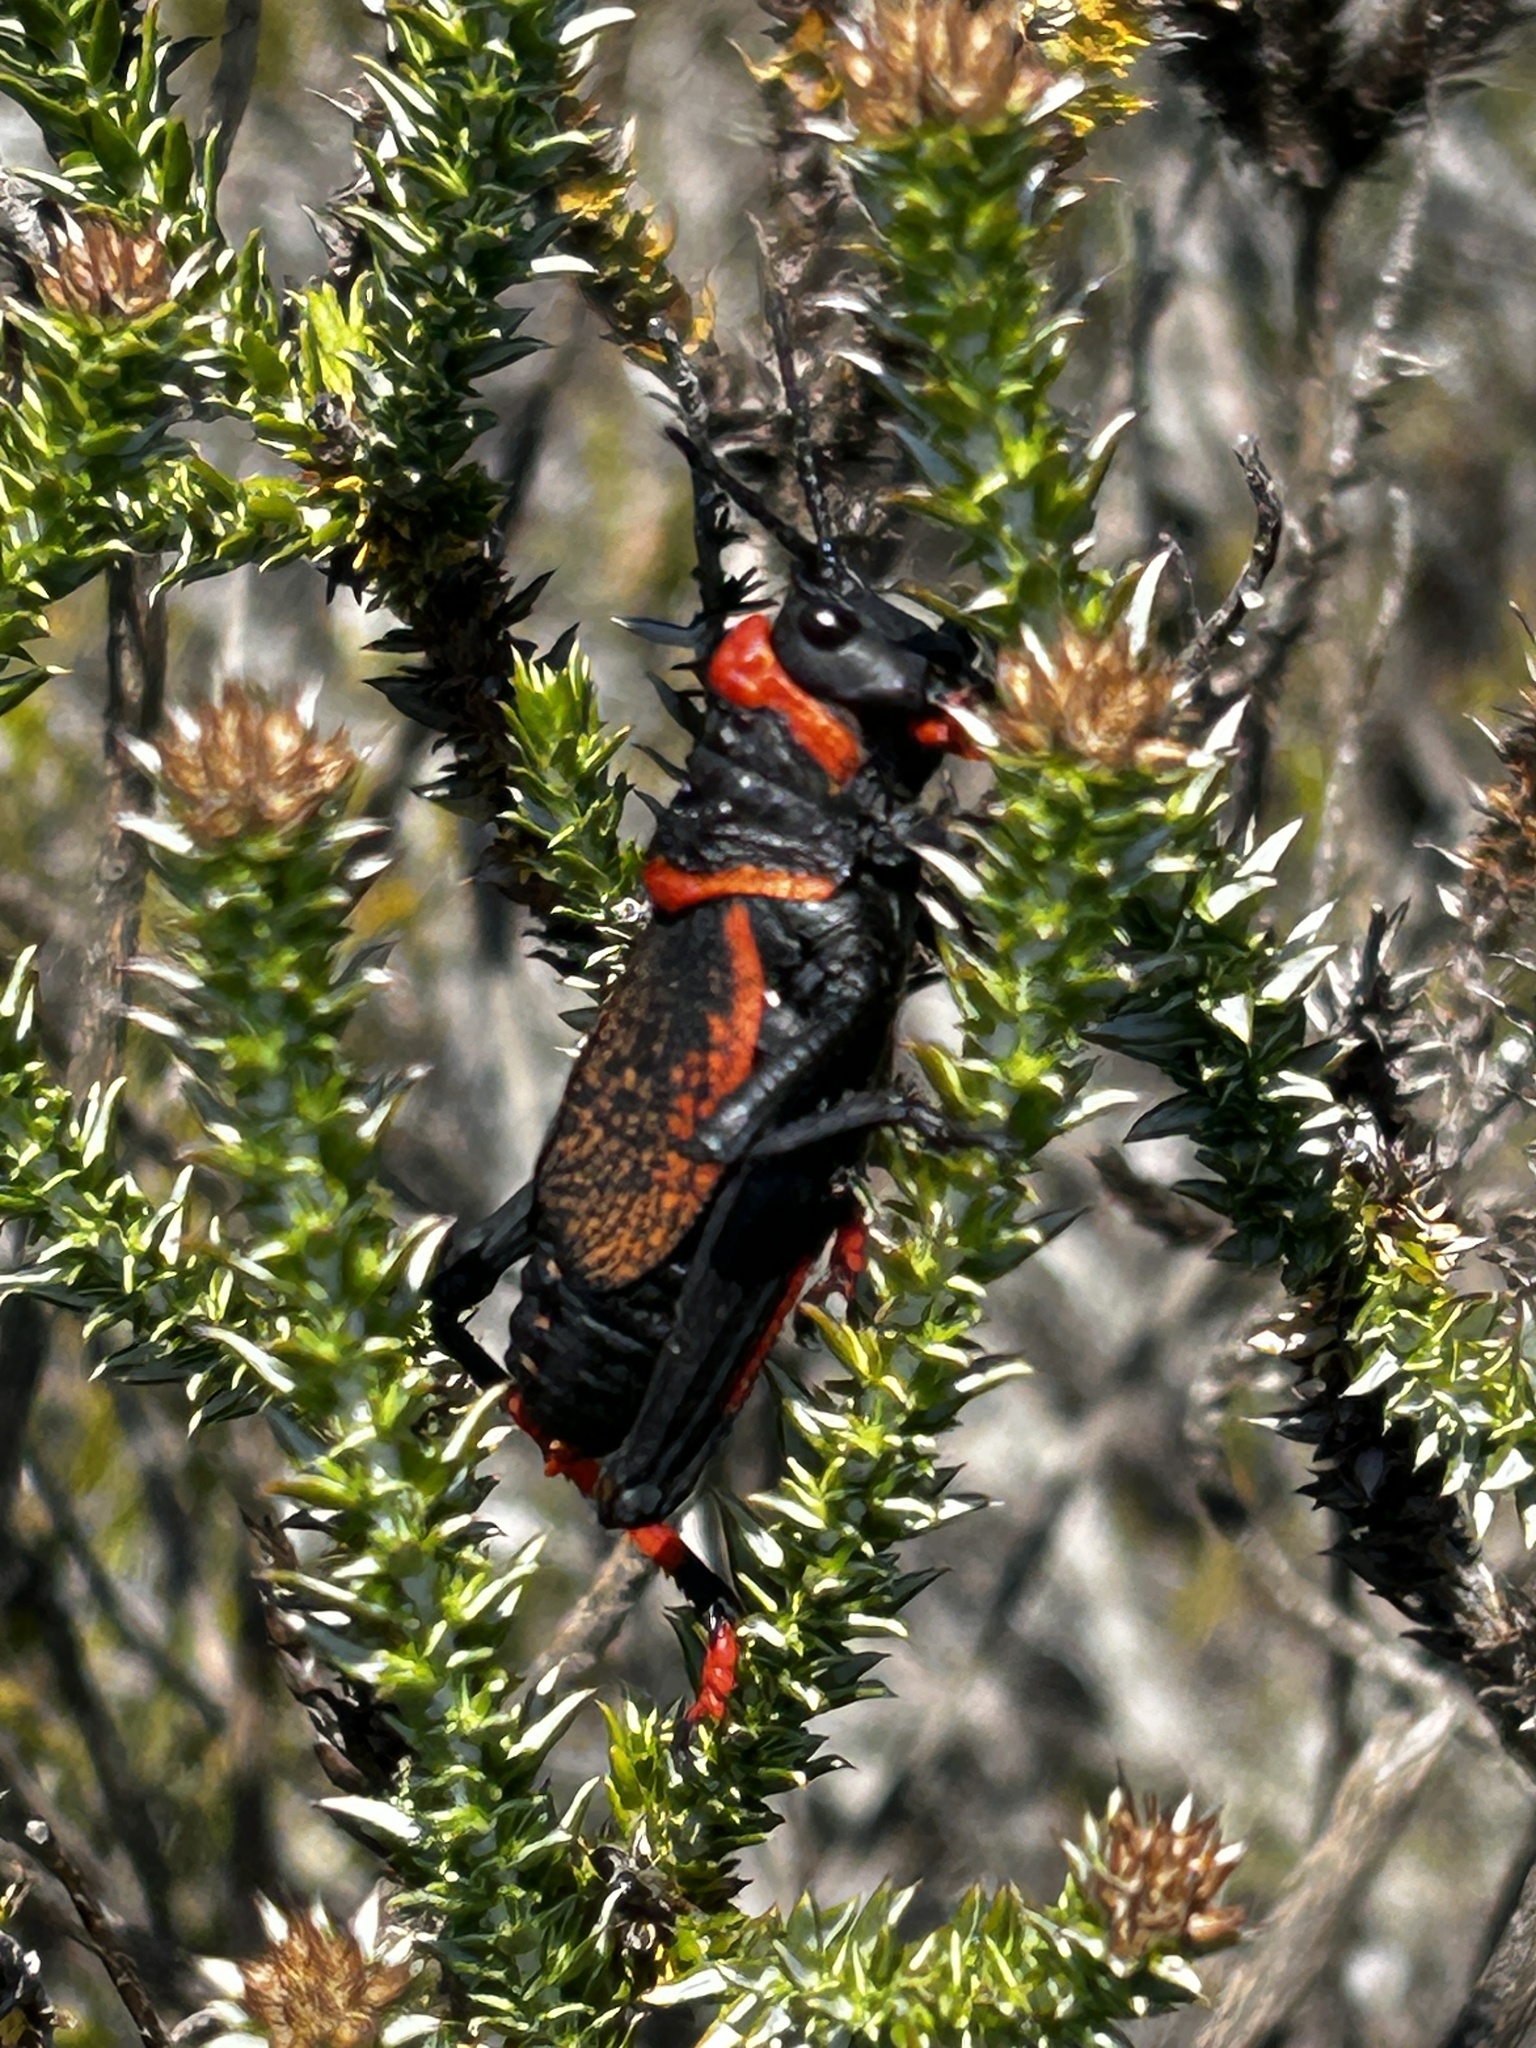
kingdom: Animalia
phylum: Arthropoda
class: Insecta
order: Orthoptera
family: Pyrgomorphidae
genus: Dictyophorus
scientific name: Dictyophorus spumans
